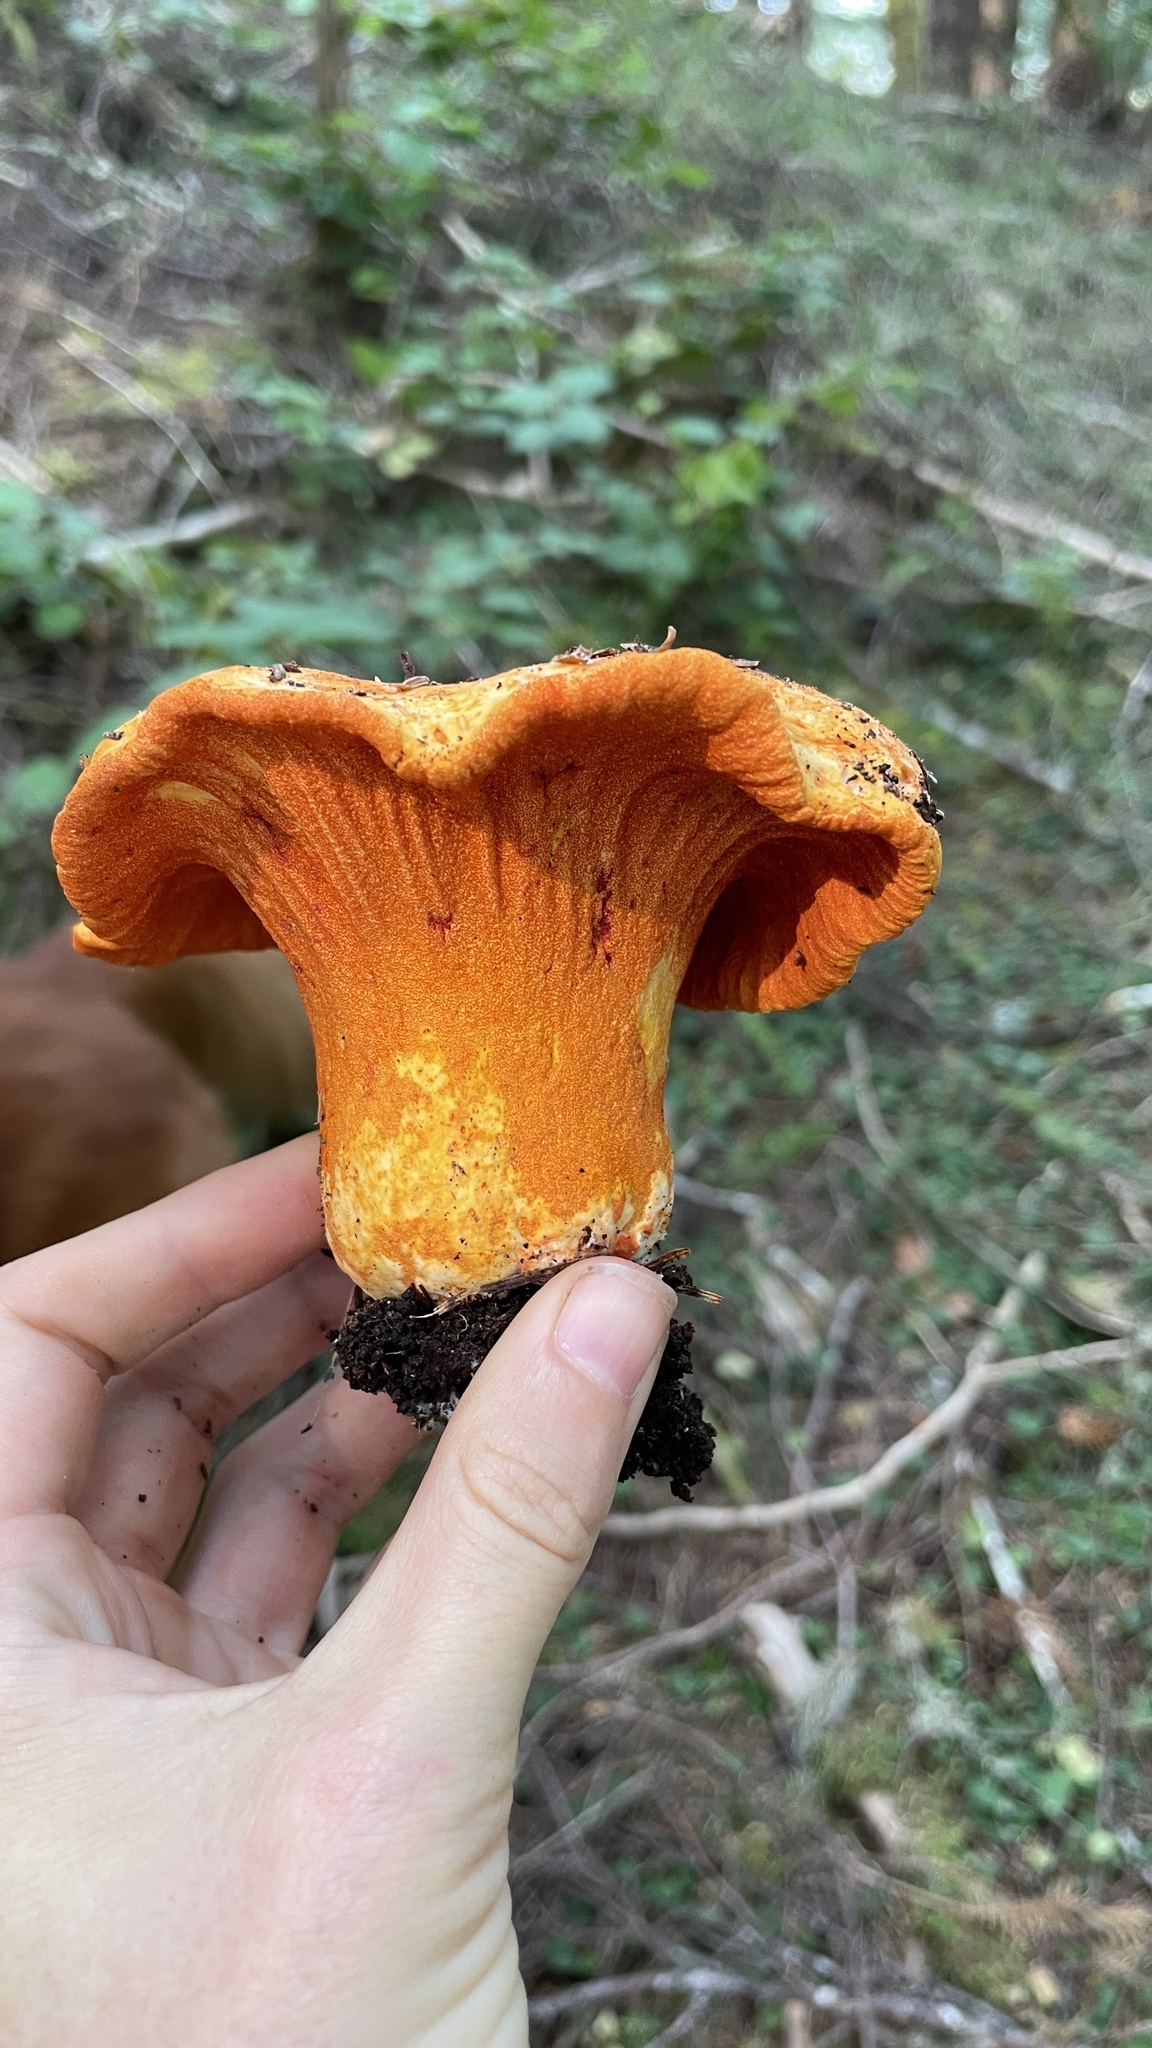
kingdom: Fungi
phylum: Ascomycota
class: Sordariomycetes
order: Hypocreales
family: Hypocreaceae
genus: Hypomyces
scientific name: Hypomyces lactifluorum
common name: Lobster mushroom
